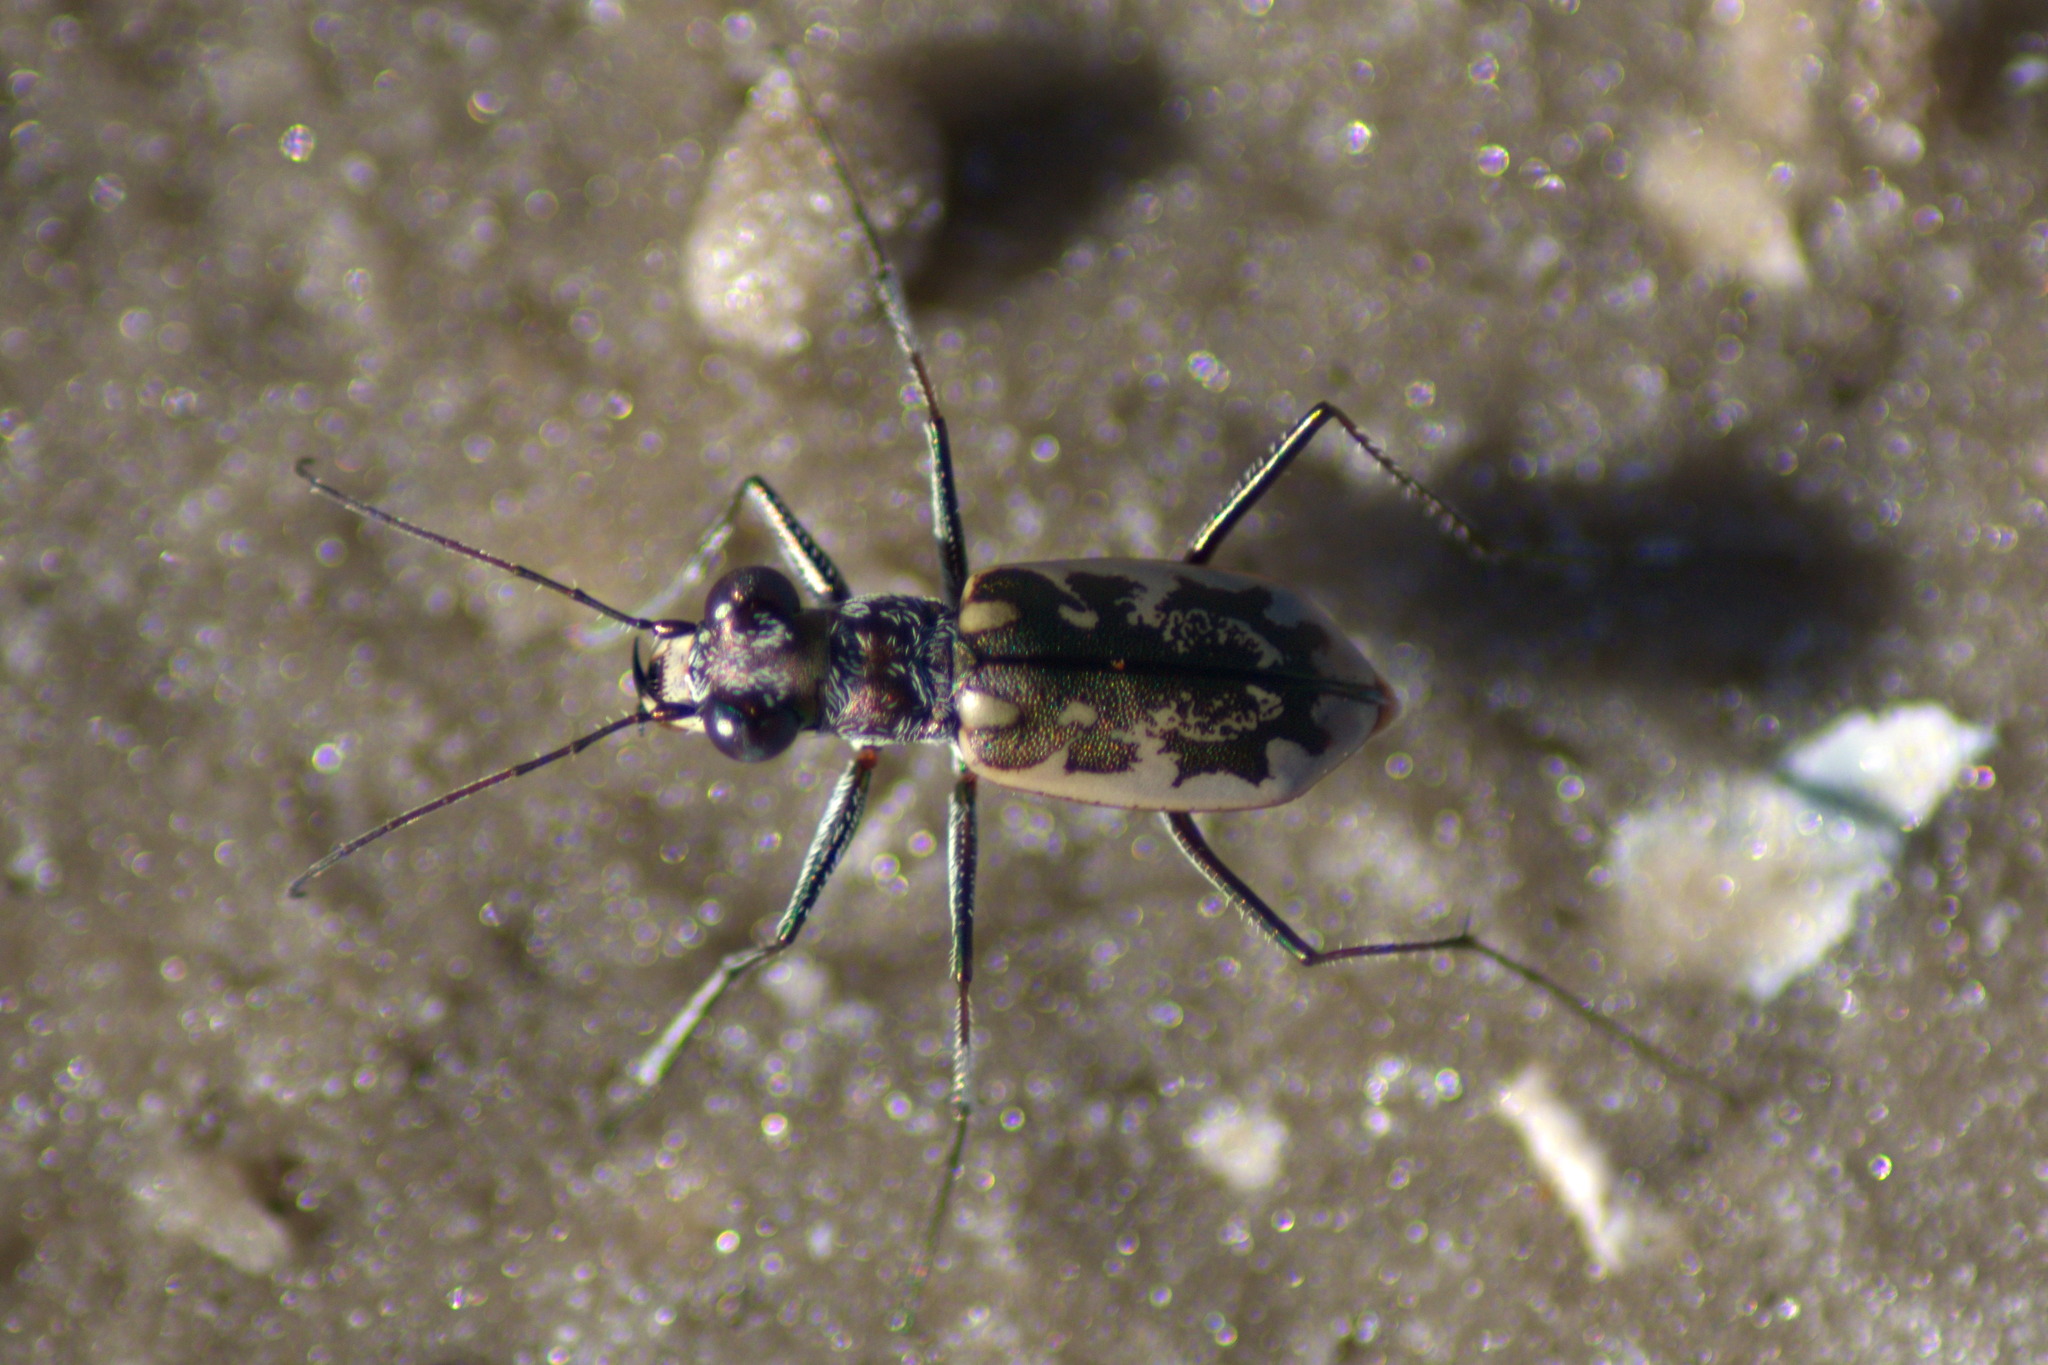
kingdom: Animalia
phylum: Arthropoda
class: Insecta
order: Coleoptera
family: Carabidae
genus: Ellipsoptera
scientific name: Ellipsoptera
